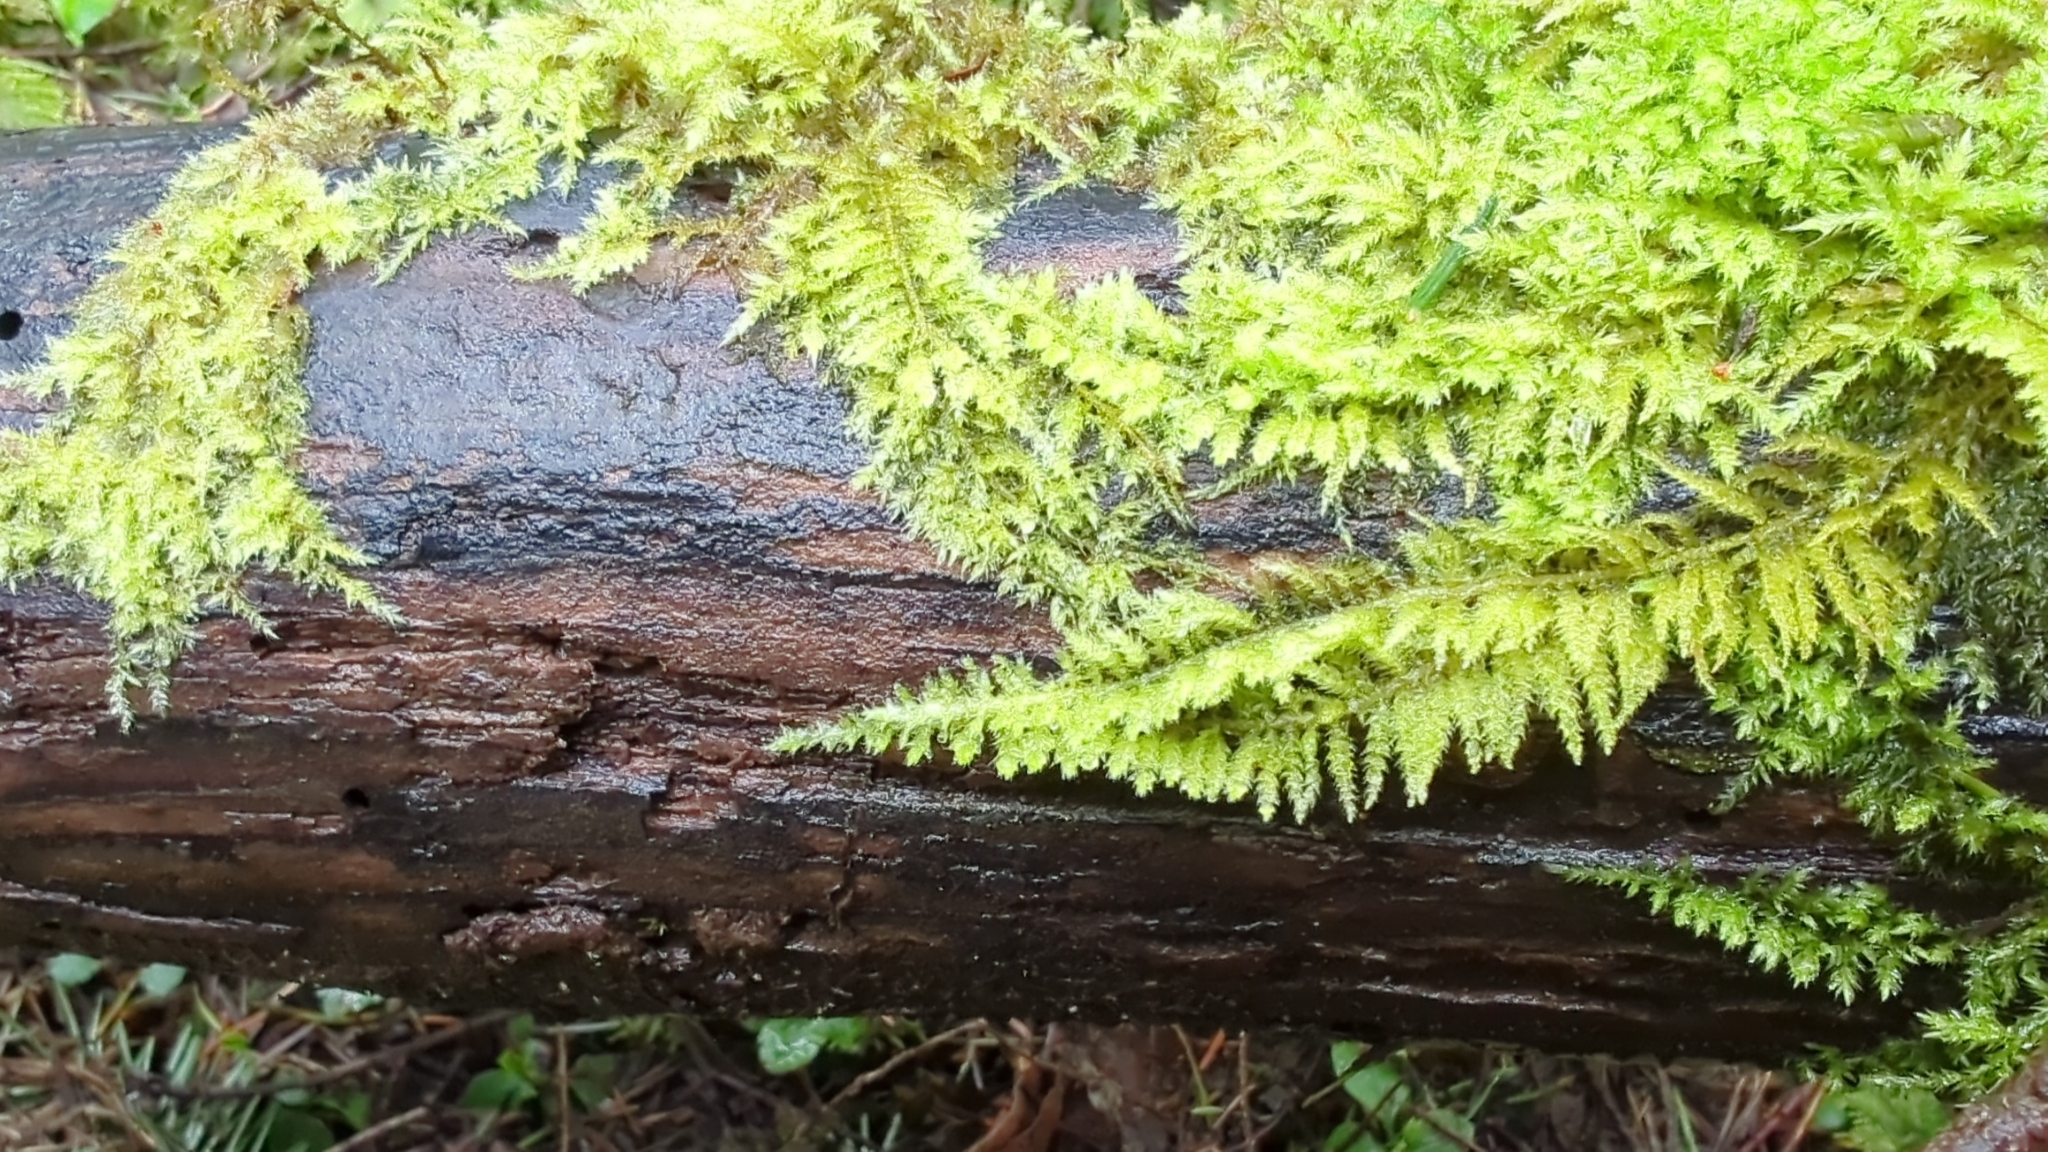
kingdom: Plantae
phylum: Bryophyta
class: Bryopsida
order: Hypnales
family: Brachytheciaceae
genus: Kindbergia
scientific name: Kindbergia oregana
